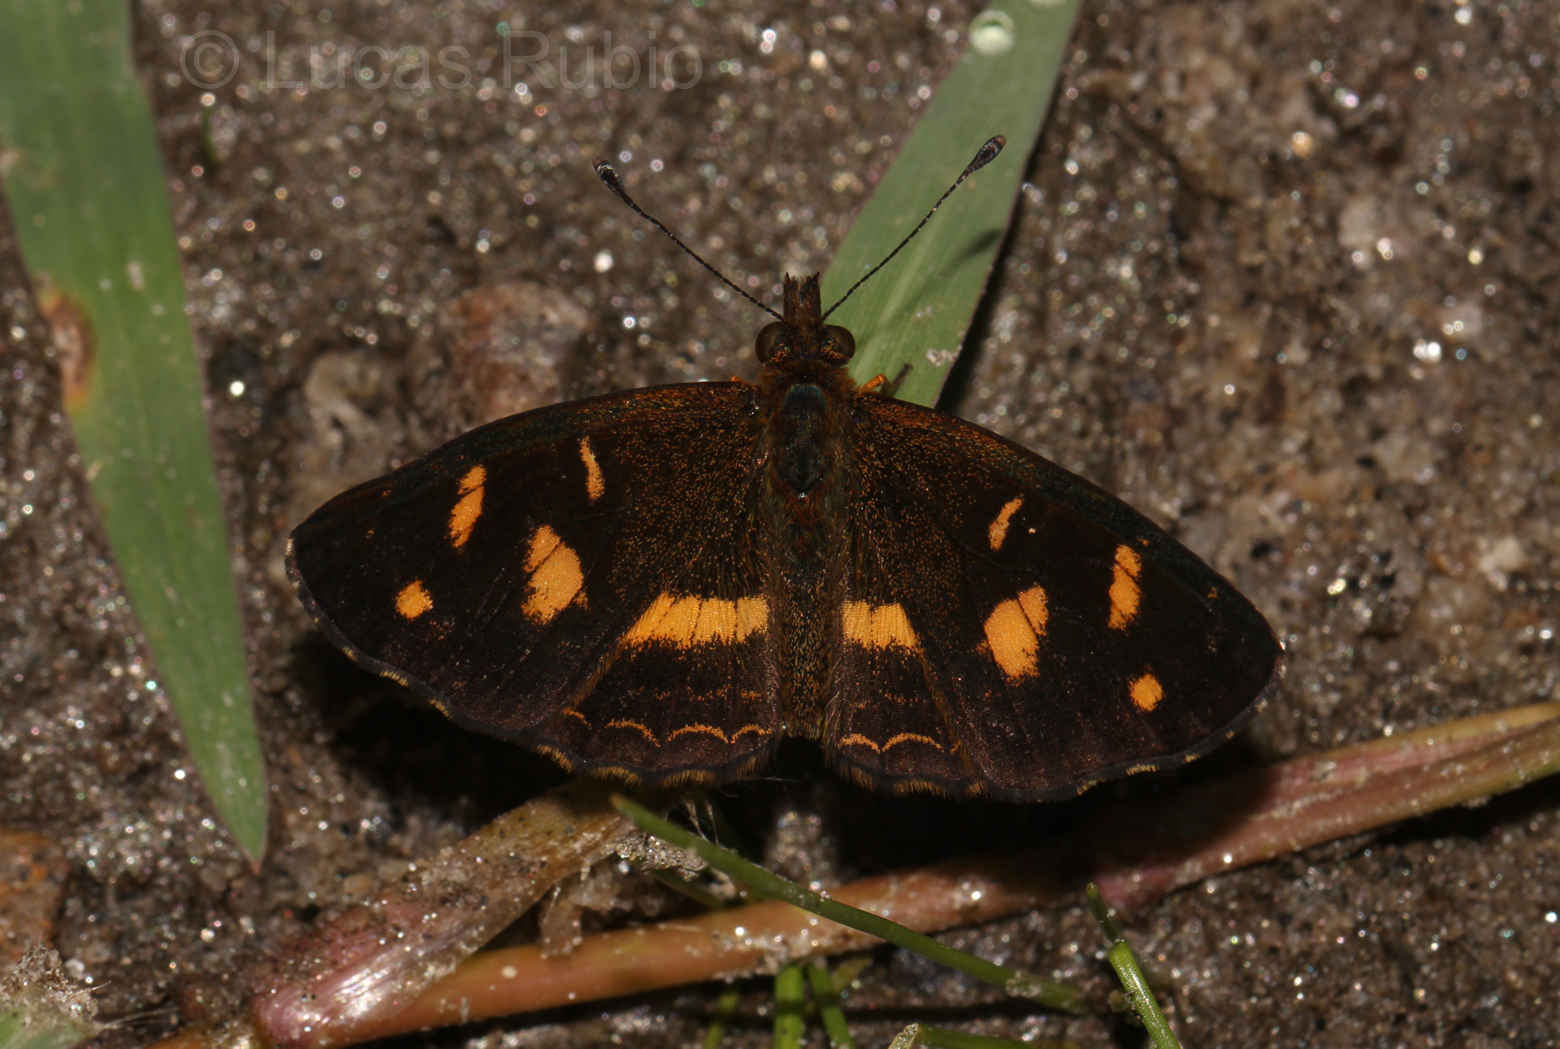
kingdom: Animalia
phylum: Arthropoda
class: Insecta
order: Lepidoptera
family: Nymphalidae
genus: Telenassa
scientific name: Telenassa berenice
